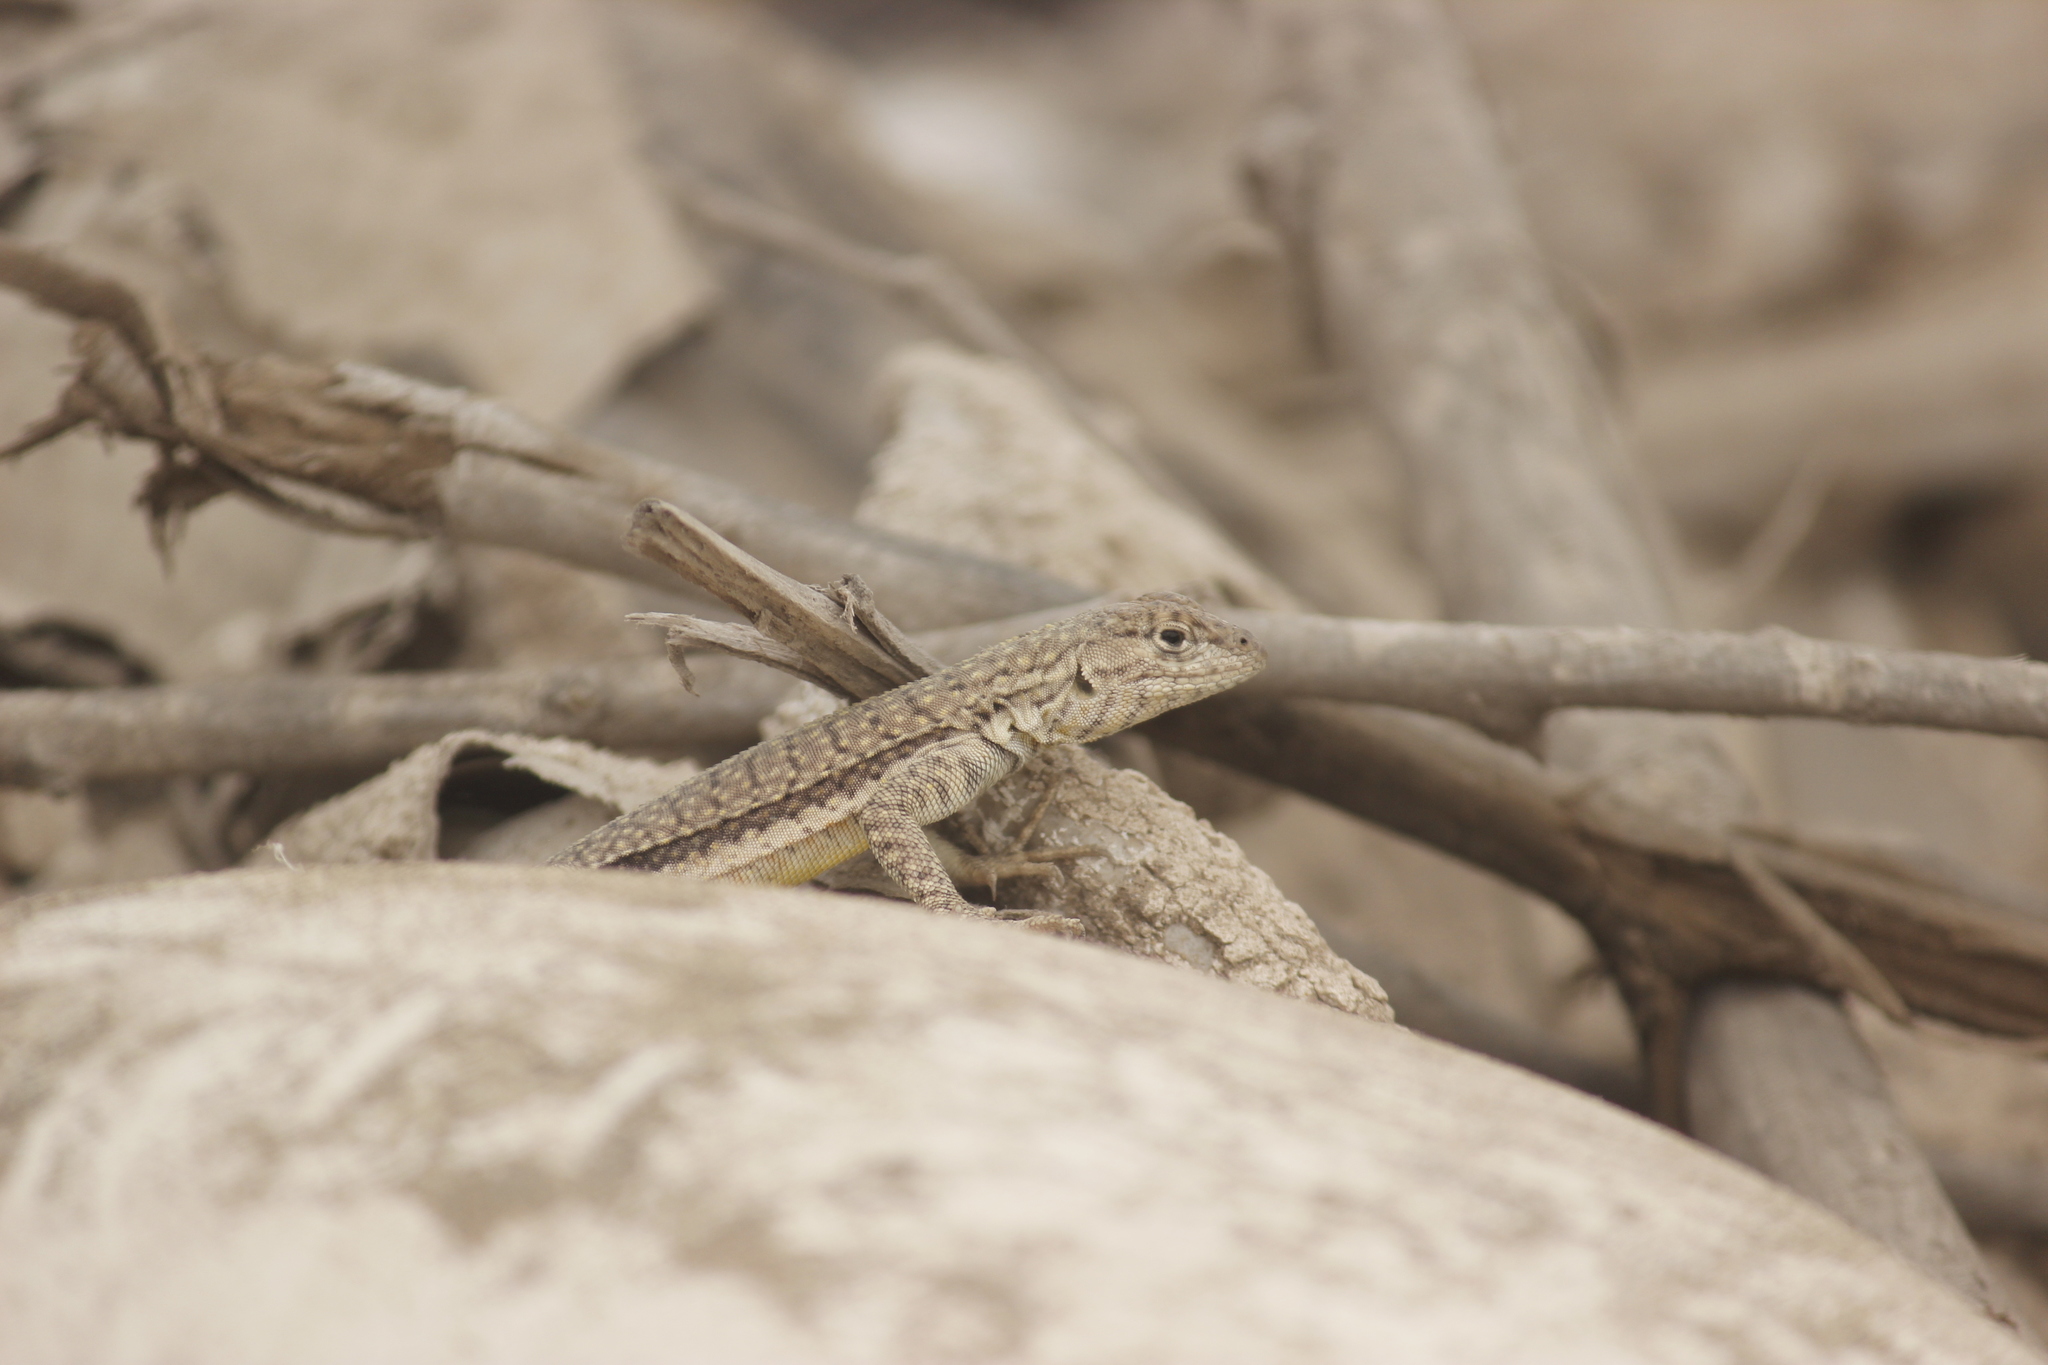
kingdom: Animalia
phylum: Chordata
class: Squamata
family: Tropiduridae
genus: Microlophus
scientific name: Microlophus peruvianus
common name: Peru pacific iguana
